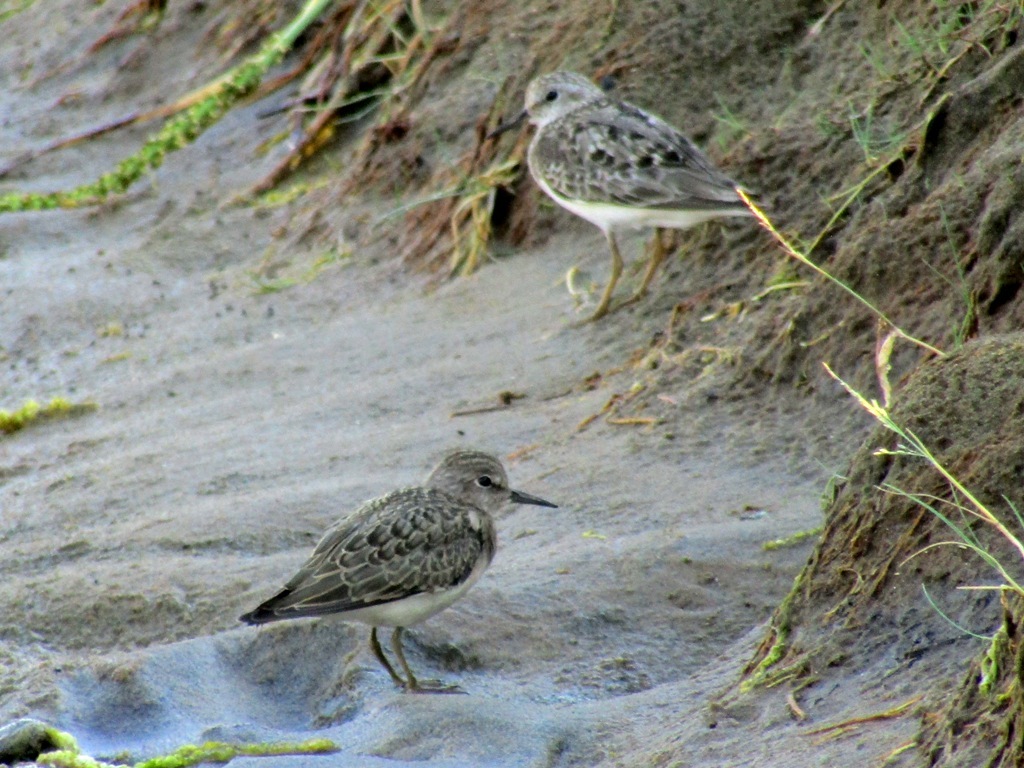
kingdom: Animalia
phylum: Chordata
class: Aves
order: Charadriiformes
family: Scolopacidae
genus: Calidris
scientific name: Calidris temminckii
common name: Temminck's stint
